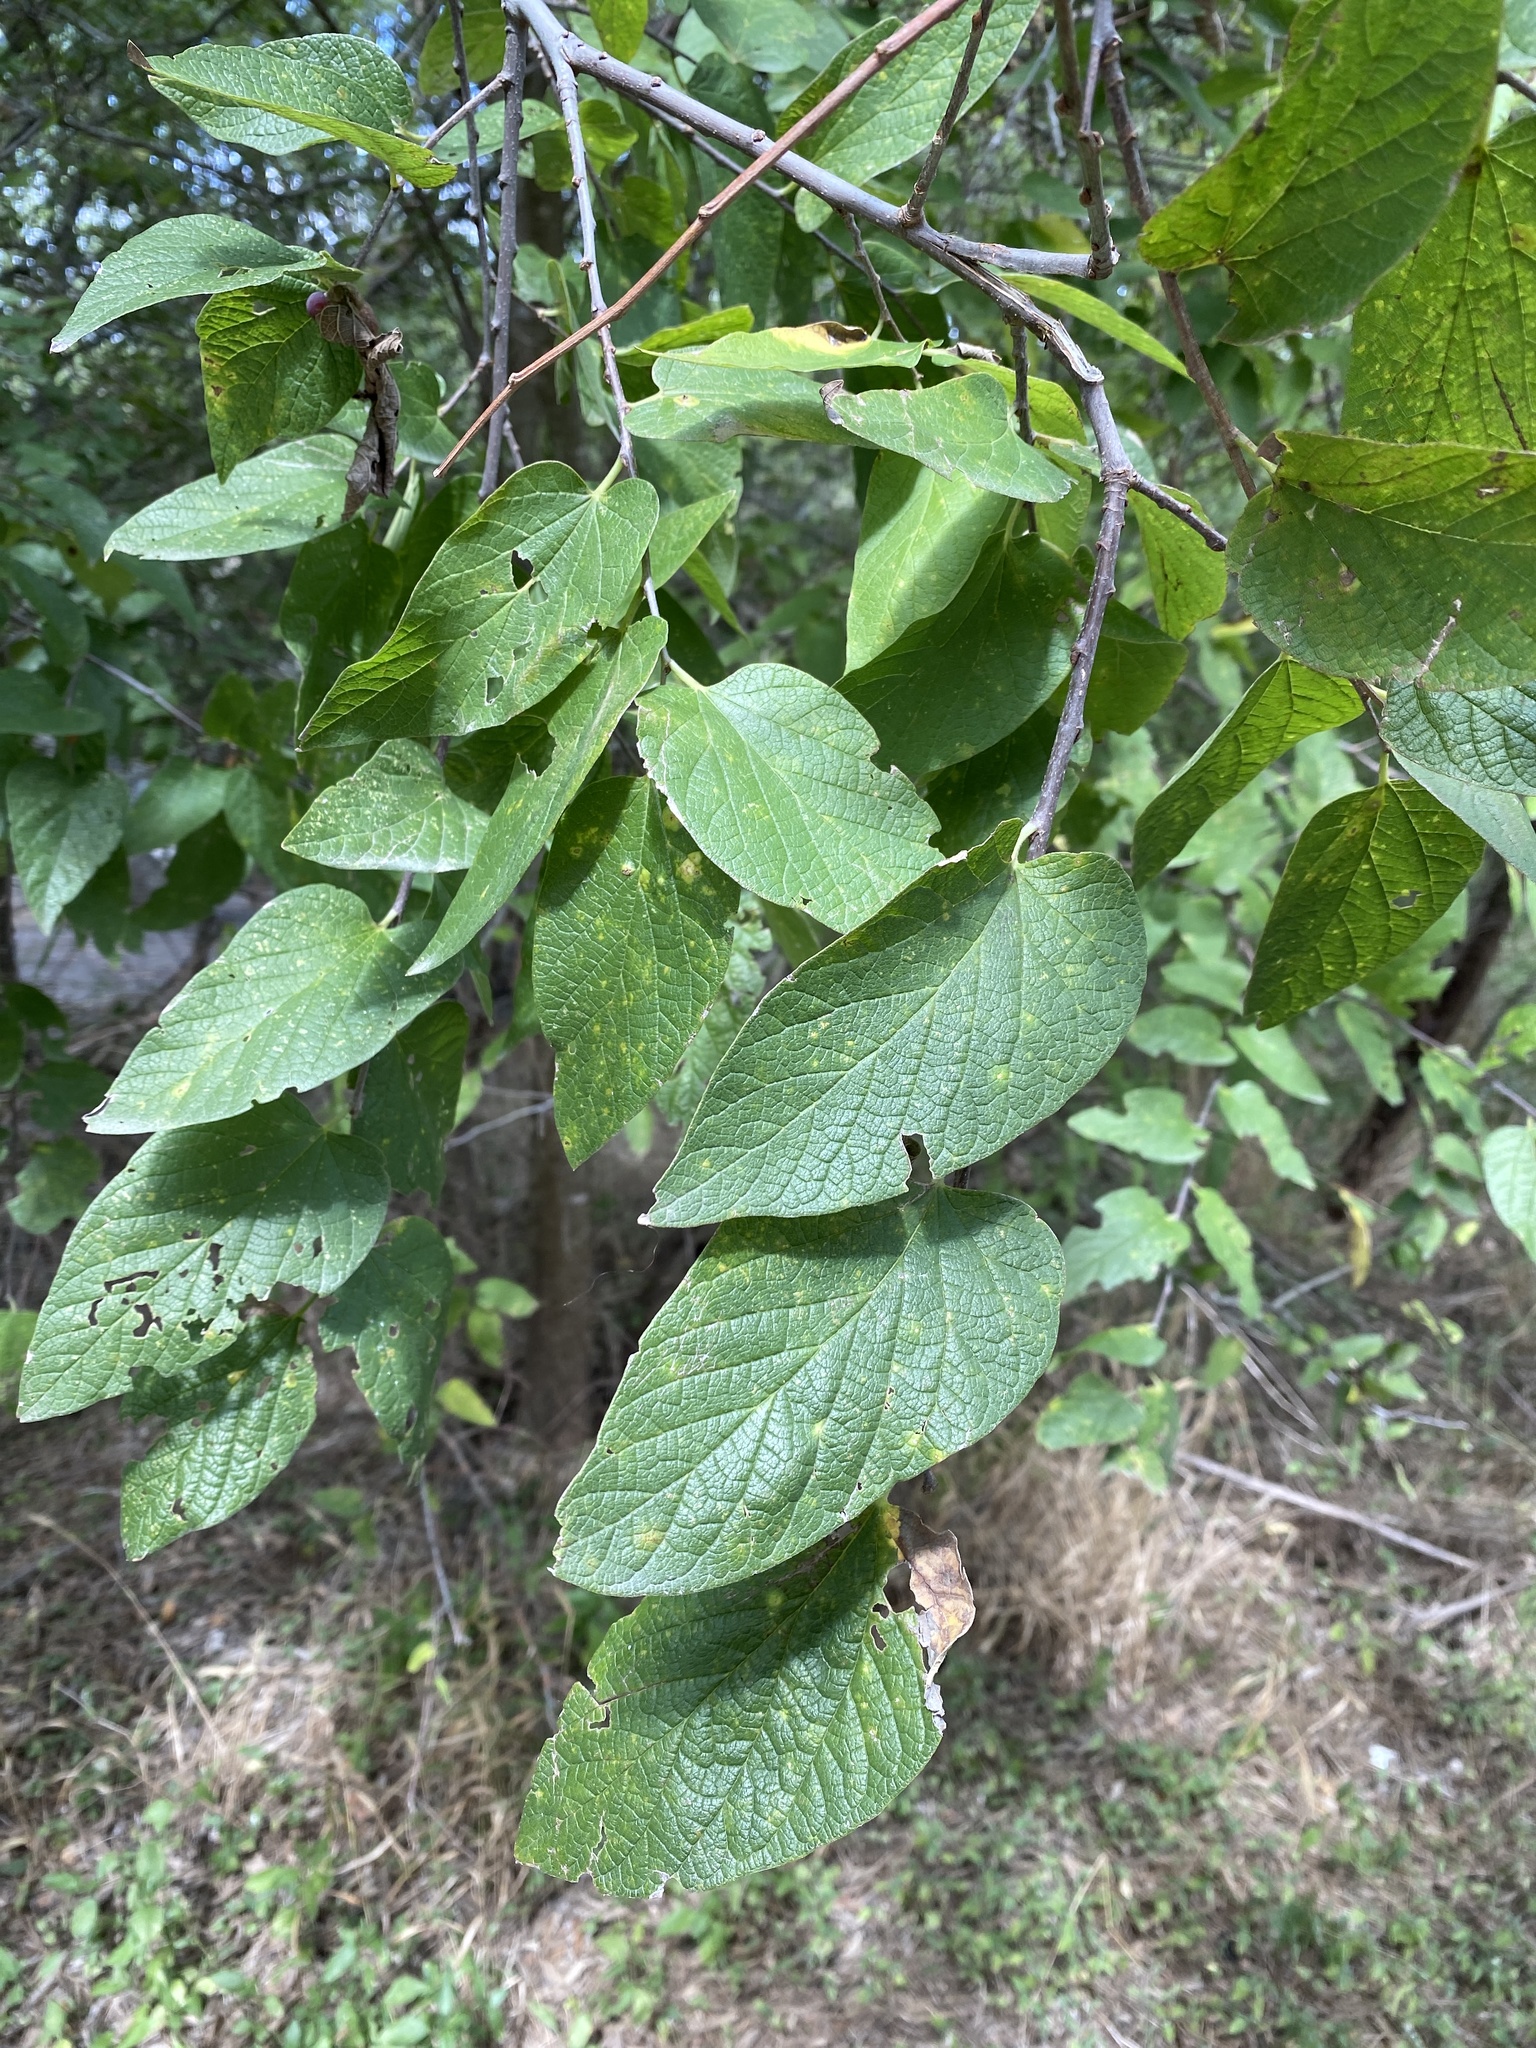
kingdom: Plantae
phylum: Tracheophyta
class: Magnoliopsida
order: Rosales
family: Cannabaceae
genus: Celtis
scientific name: Celtis reticulata
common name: Netleaf hackberry
